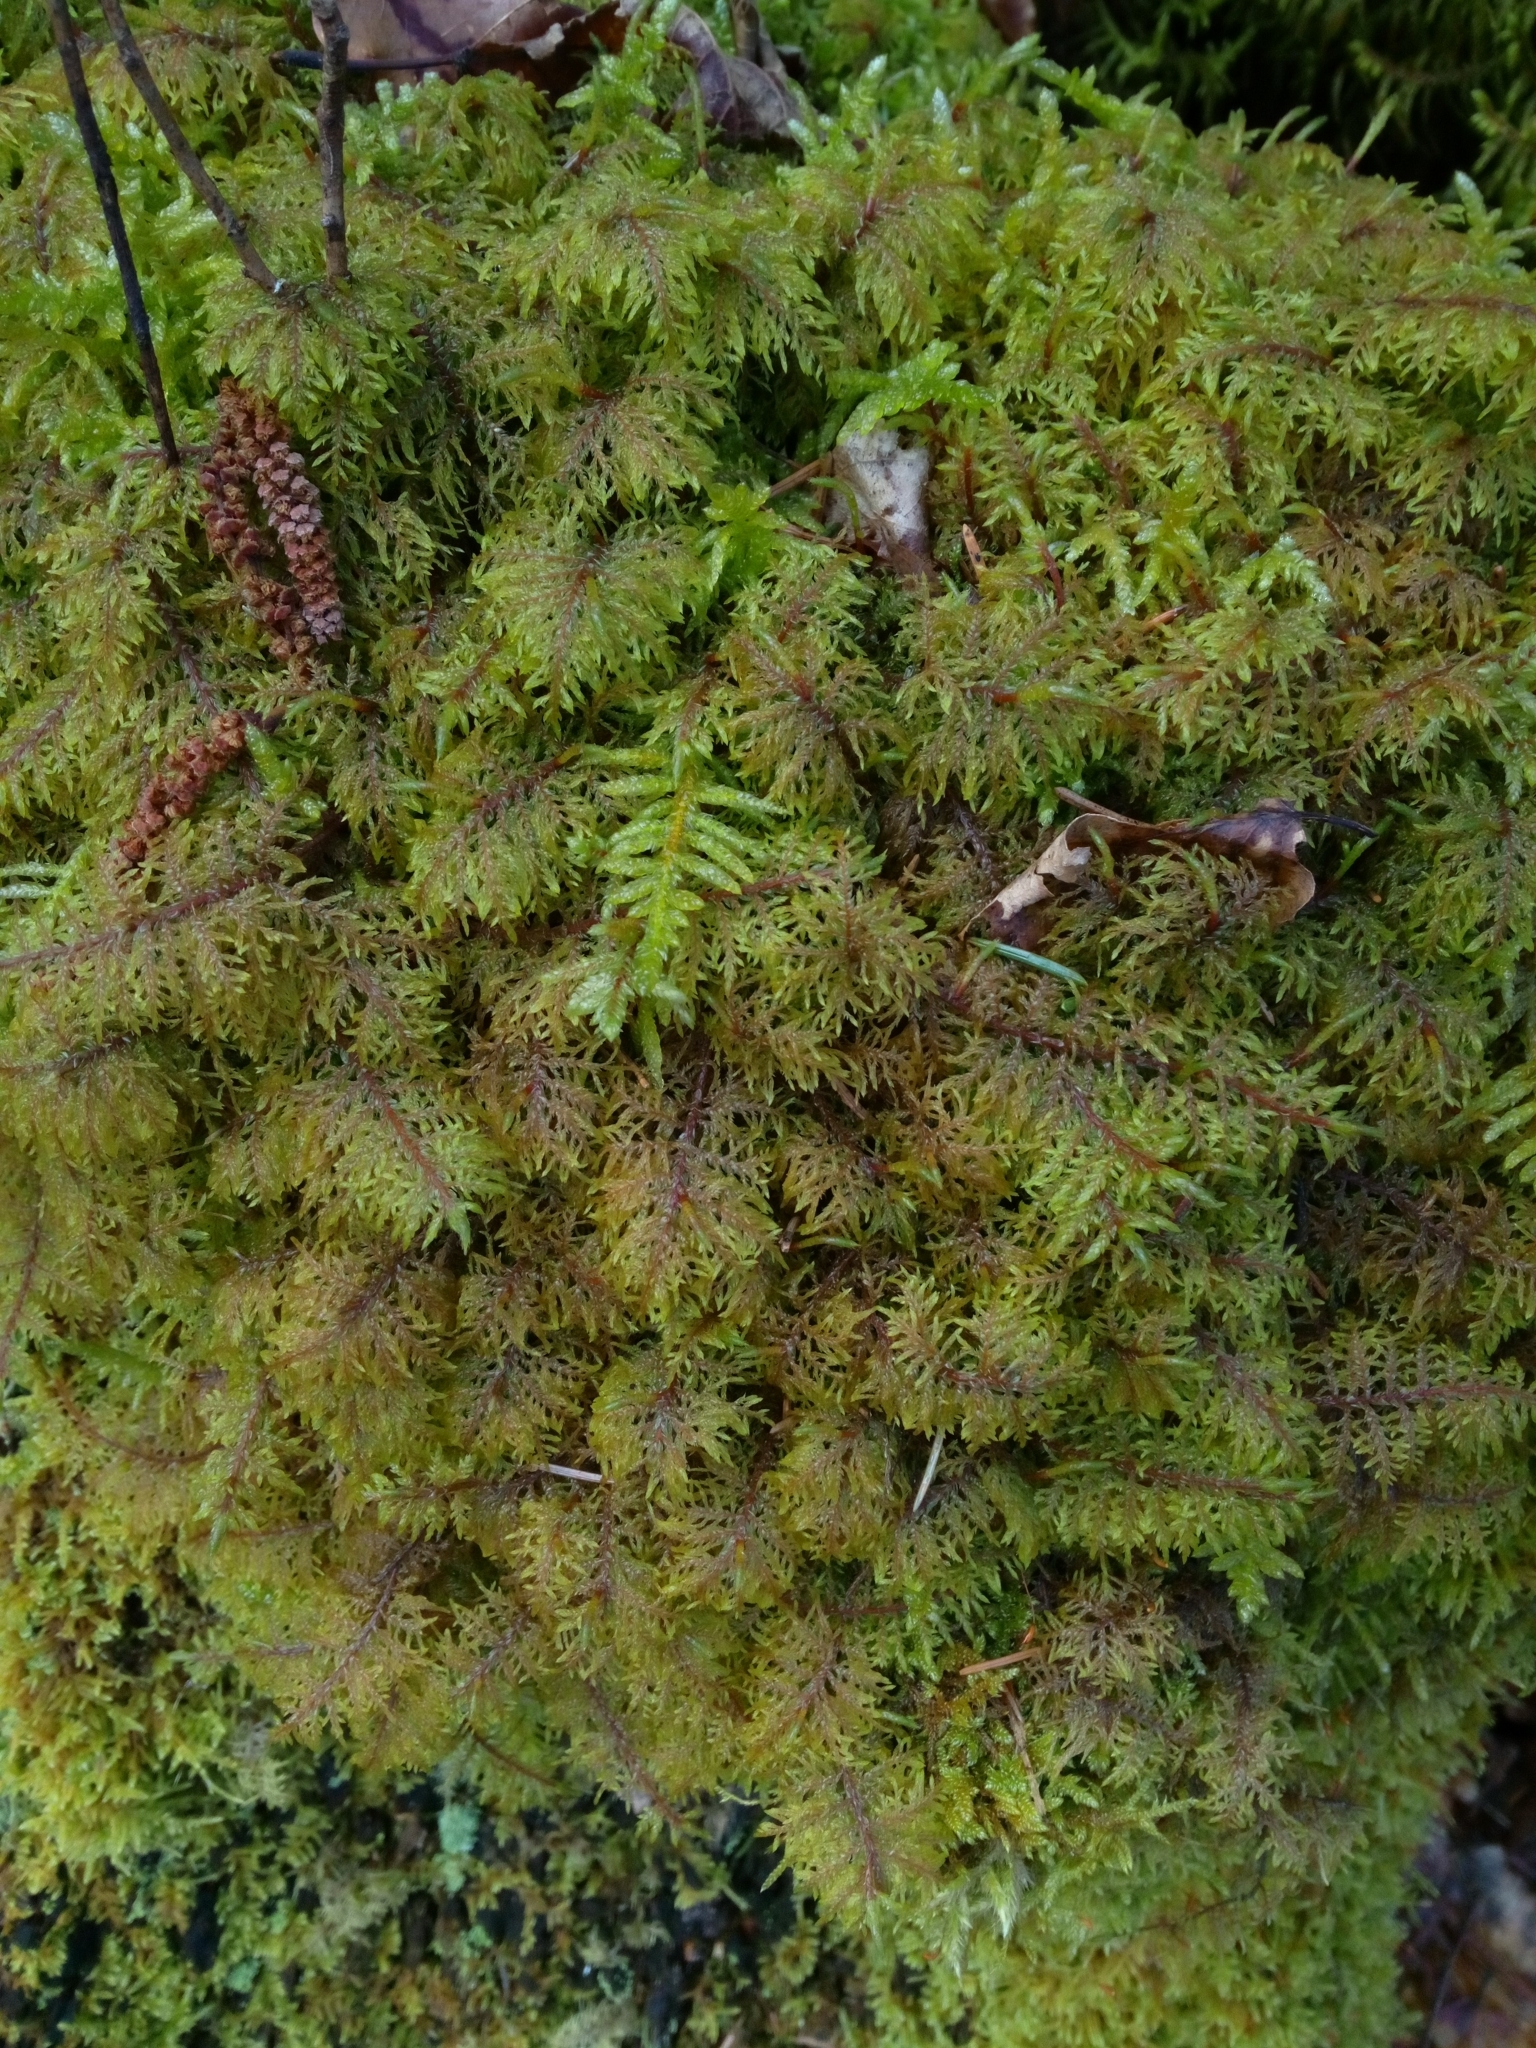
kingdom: Plantae
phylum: Bryophyta
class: Bryopsida
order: Hypnales
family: Hylocomiaceae
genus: Hylocomium
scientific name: Hylocomium splendens
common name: Stairstep moss
